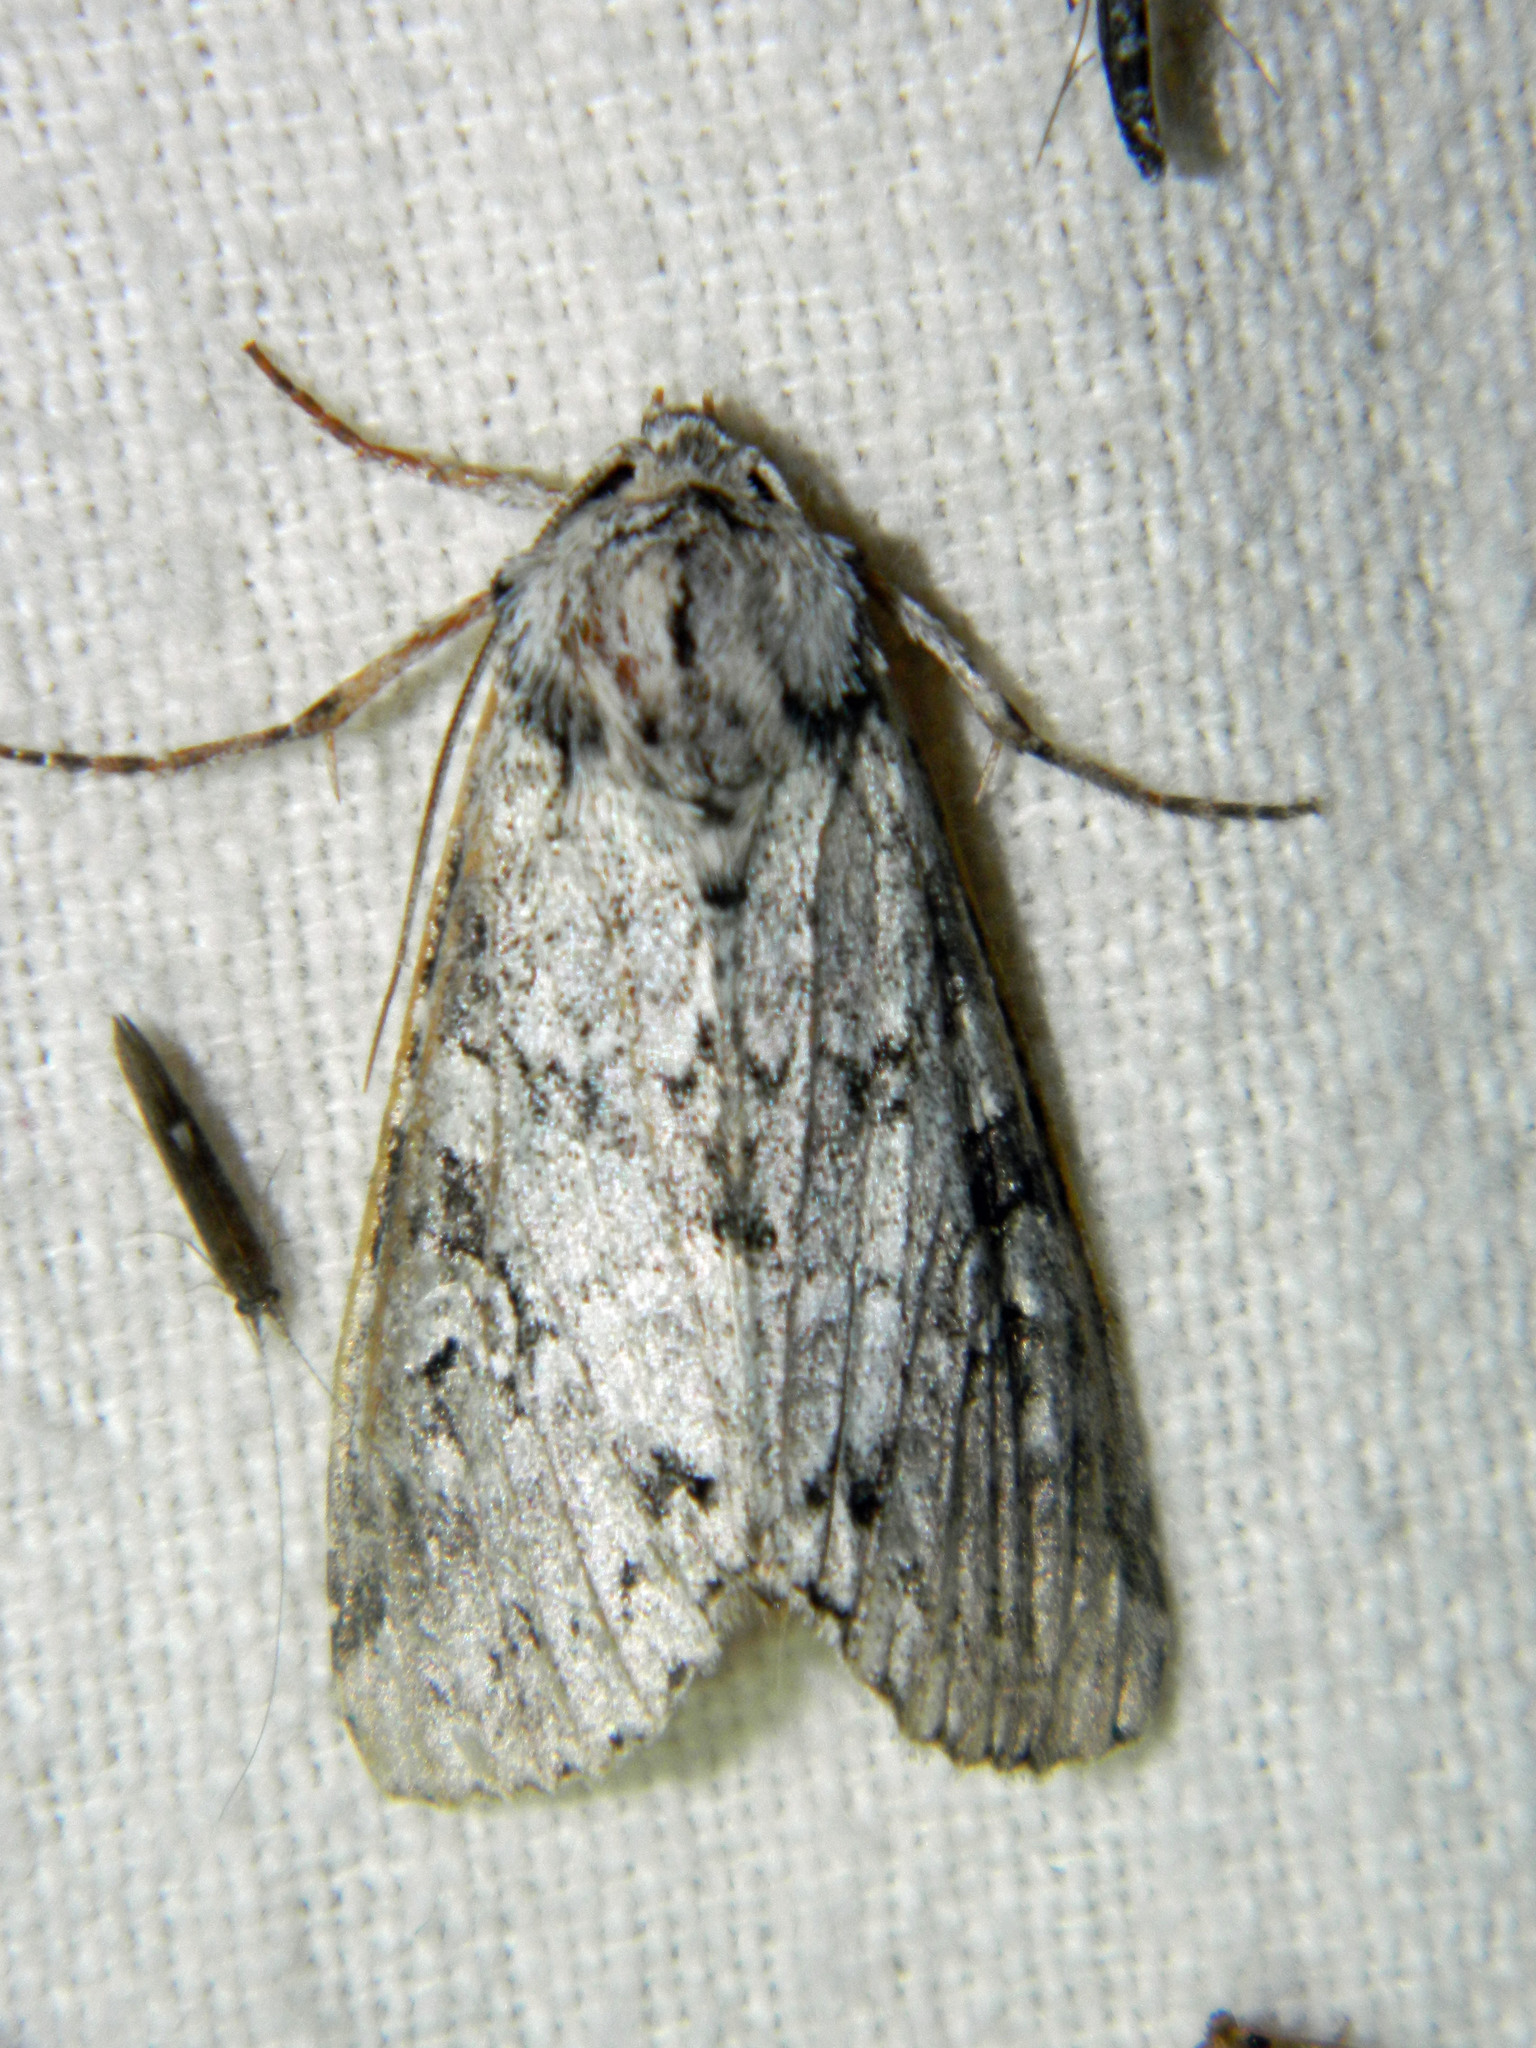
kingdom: Animalia
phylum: Arthropoda
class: Insecta
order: Lepidoptera
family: Noctuidae
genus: Polia
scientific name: Polia nimbosa
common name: Stormy arches
